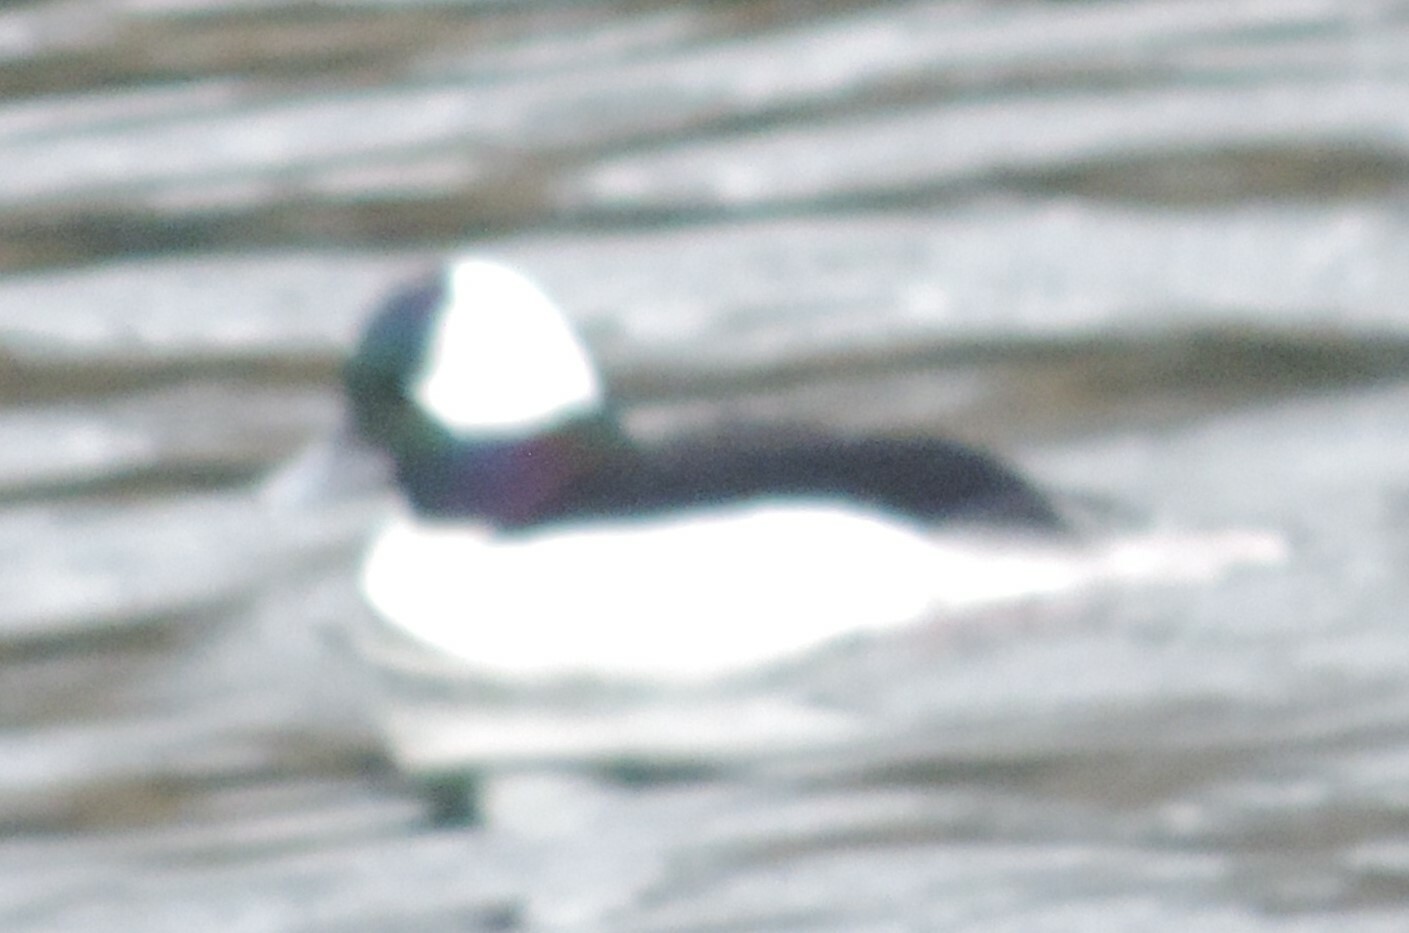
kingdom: Animalia
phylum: Chordata
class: Aves
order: Anseriformes
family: Anatidae
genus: Bucephala
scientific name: Bucephala albeola
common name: Bufflehead
